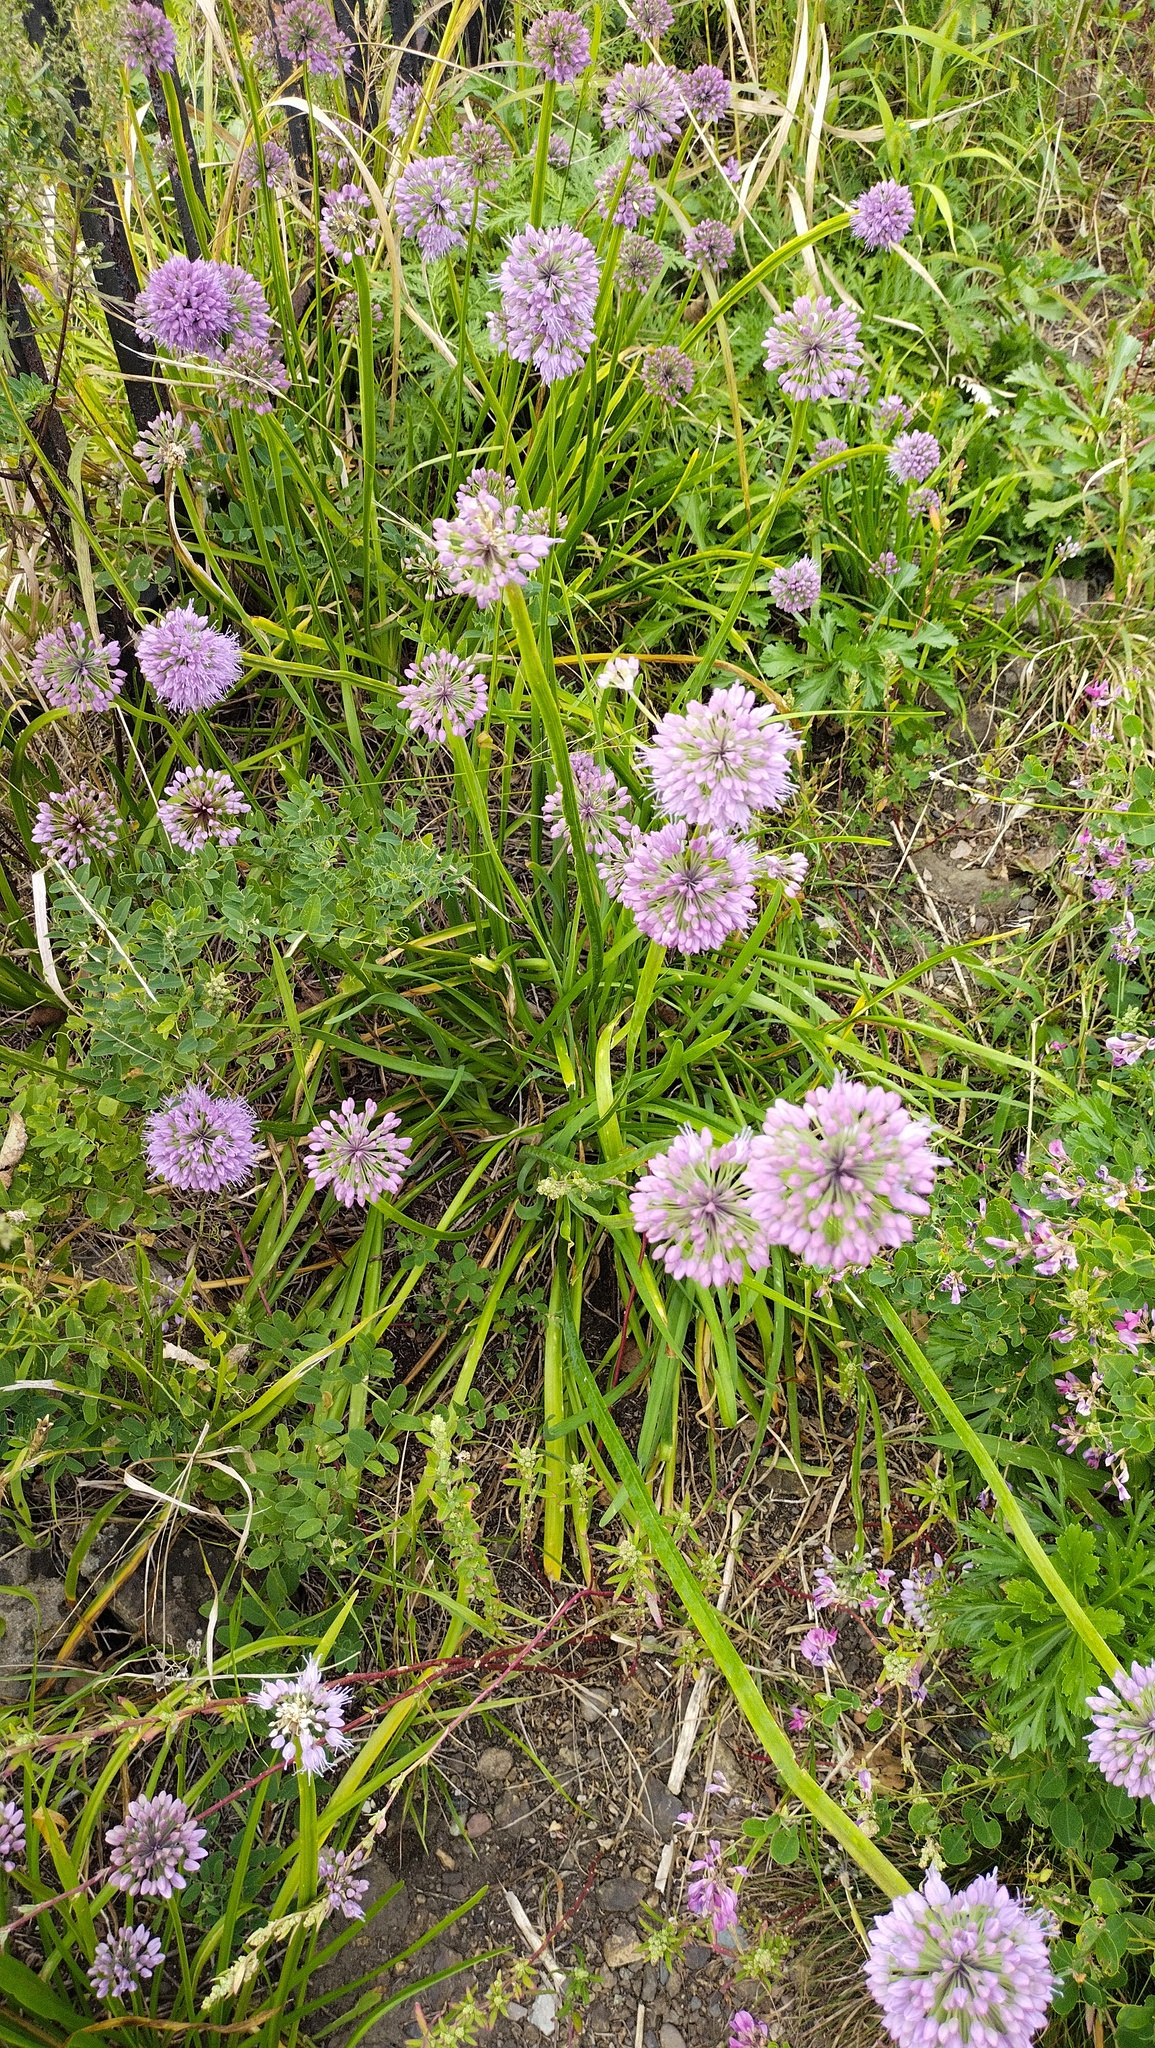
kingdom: Plantae
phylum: Tracheophyta
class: Liliopsida
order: Asparagales
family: Amaryllidaceae
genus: Allium
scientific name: Allium spirale
